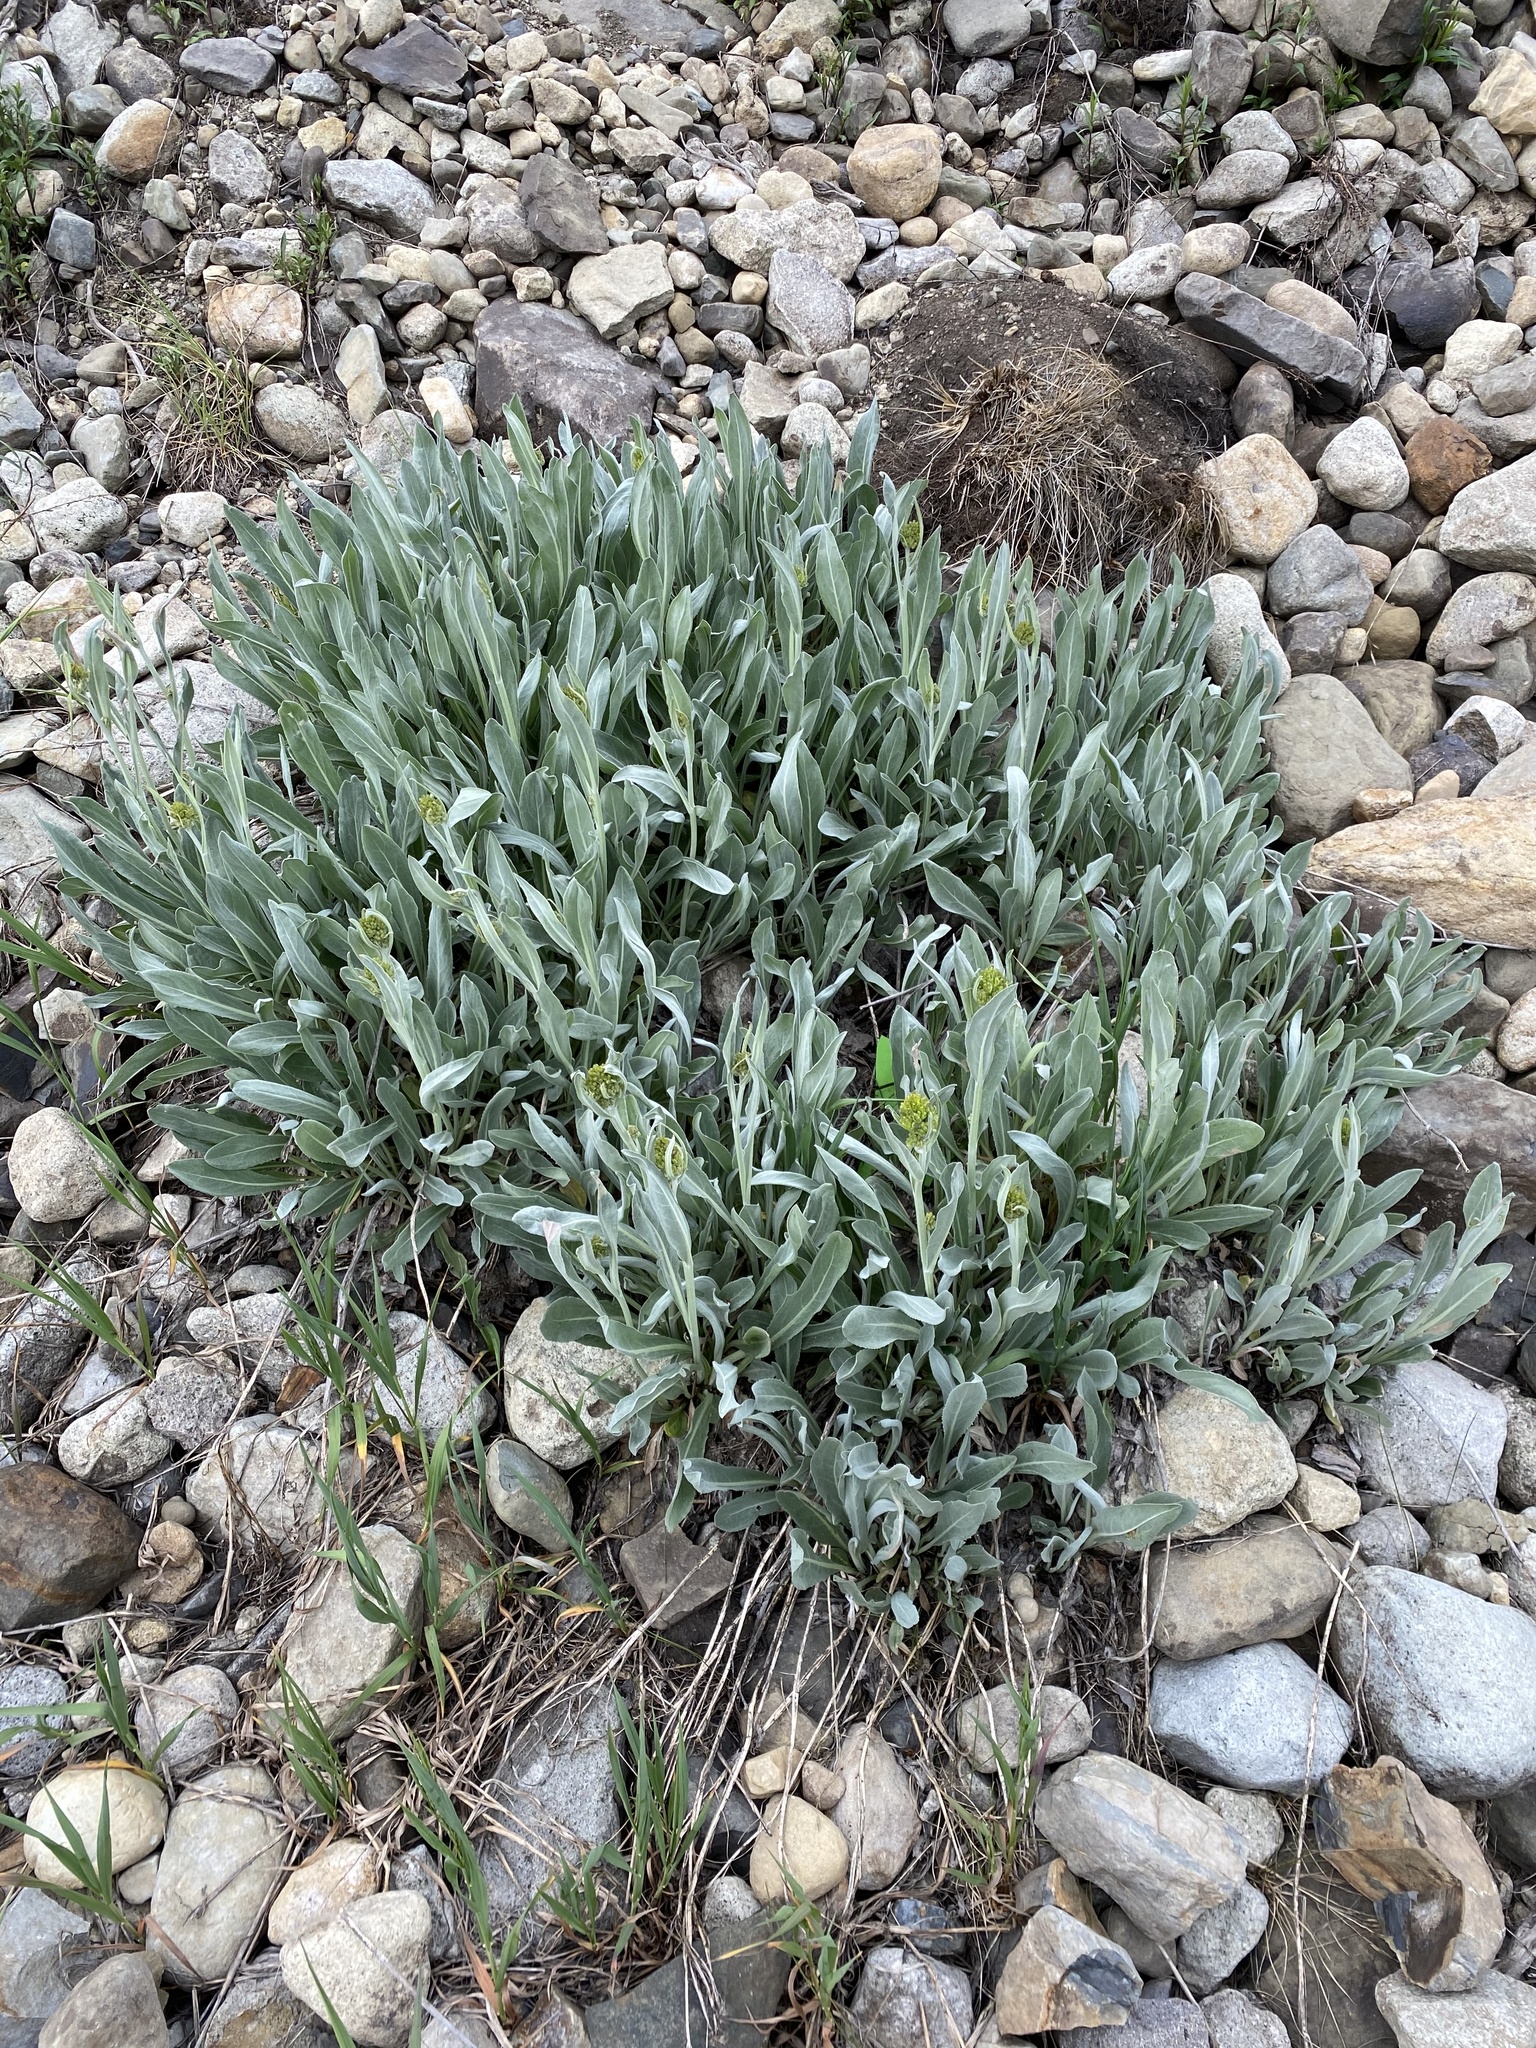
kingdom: Plantae
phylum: Tracheophyta
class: Magnoliopsida
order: Asterales
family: Asteraceae
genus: Senecio
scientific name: Senecio atratus
